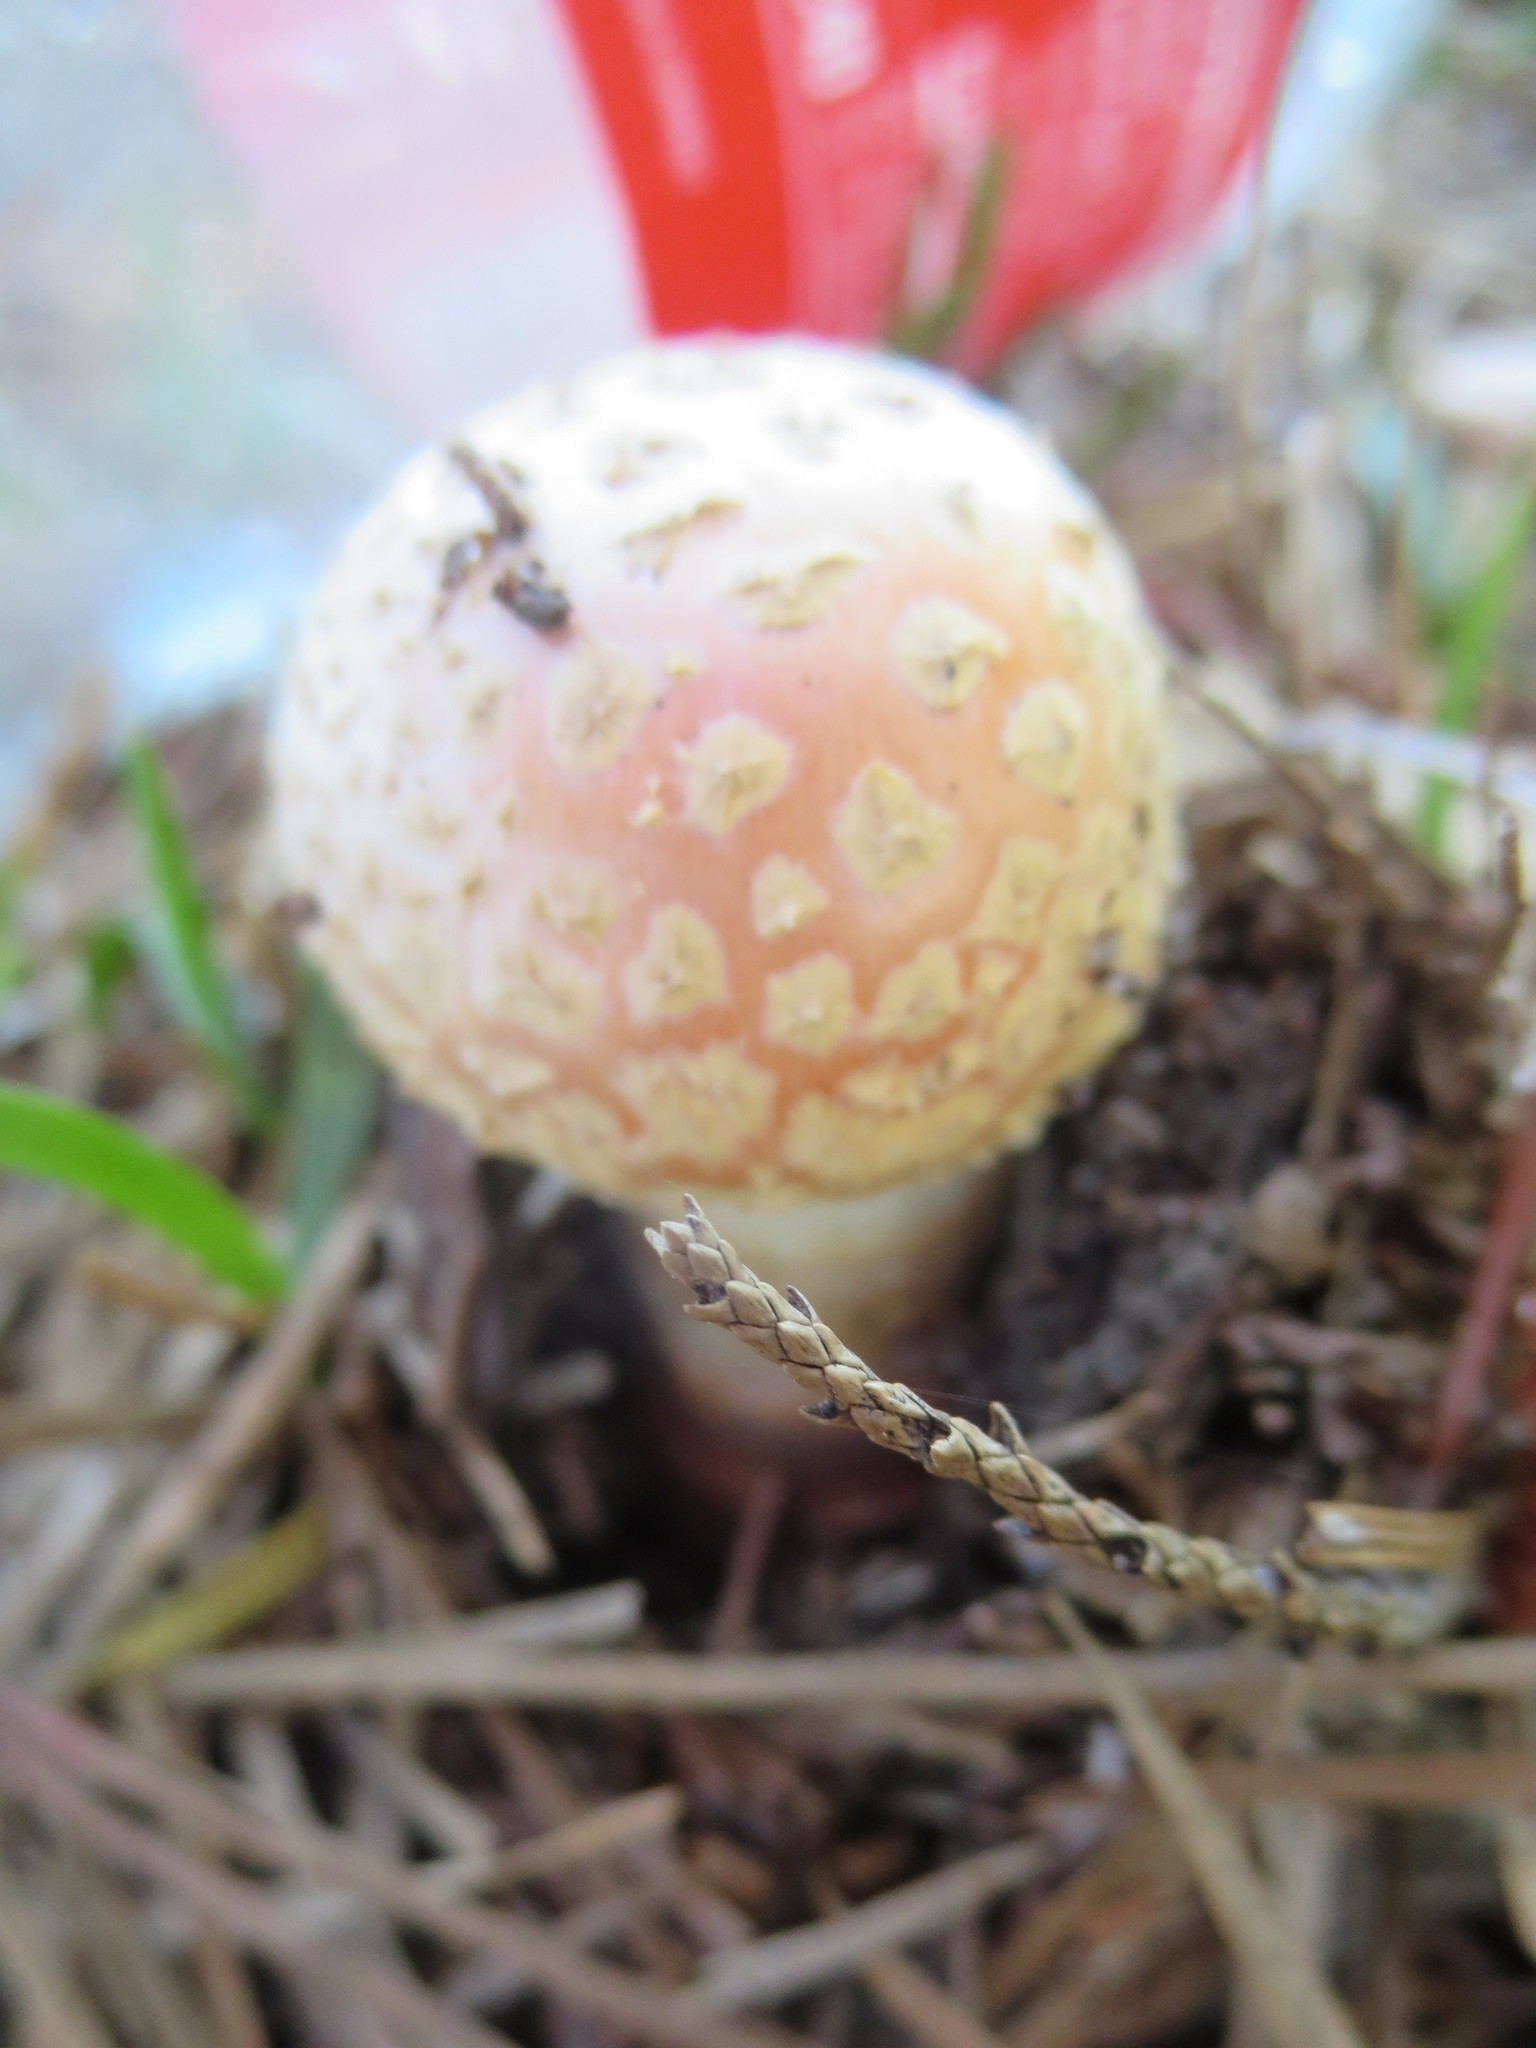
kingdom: Fungi
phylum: Basidiomycota
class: Agaricomycetes
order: Agaricales
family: Amanitaceae
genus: Amanita
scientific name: Amanita persicina
